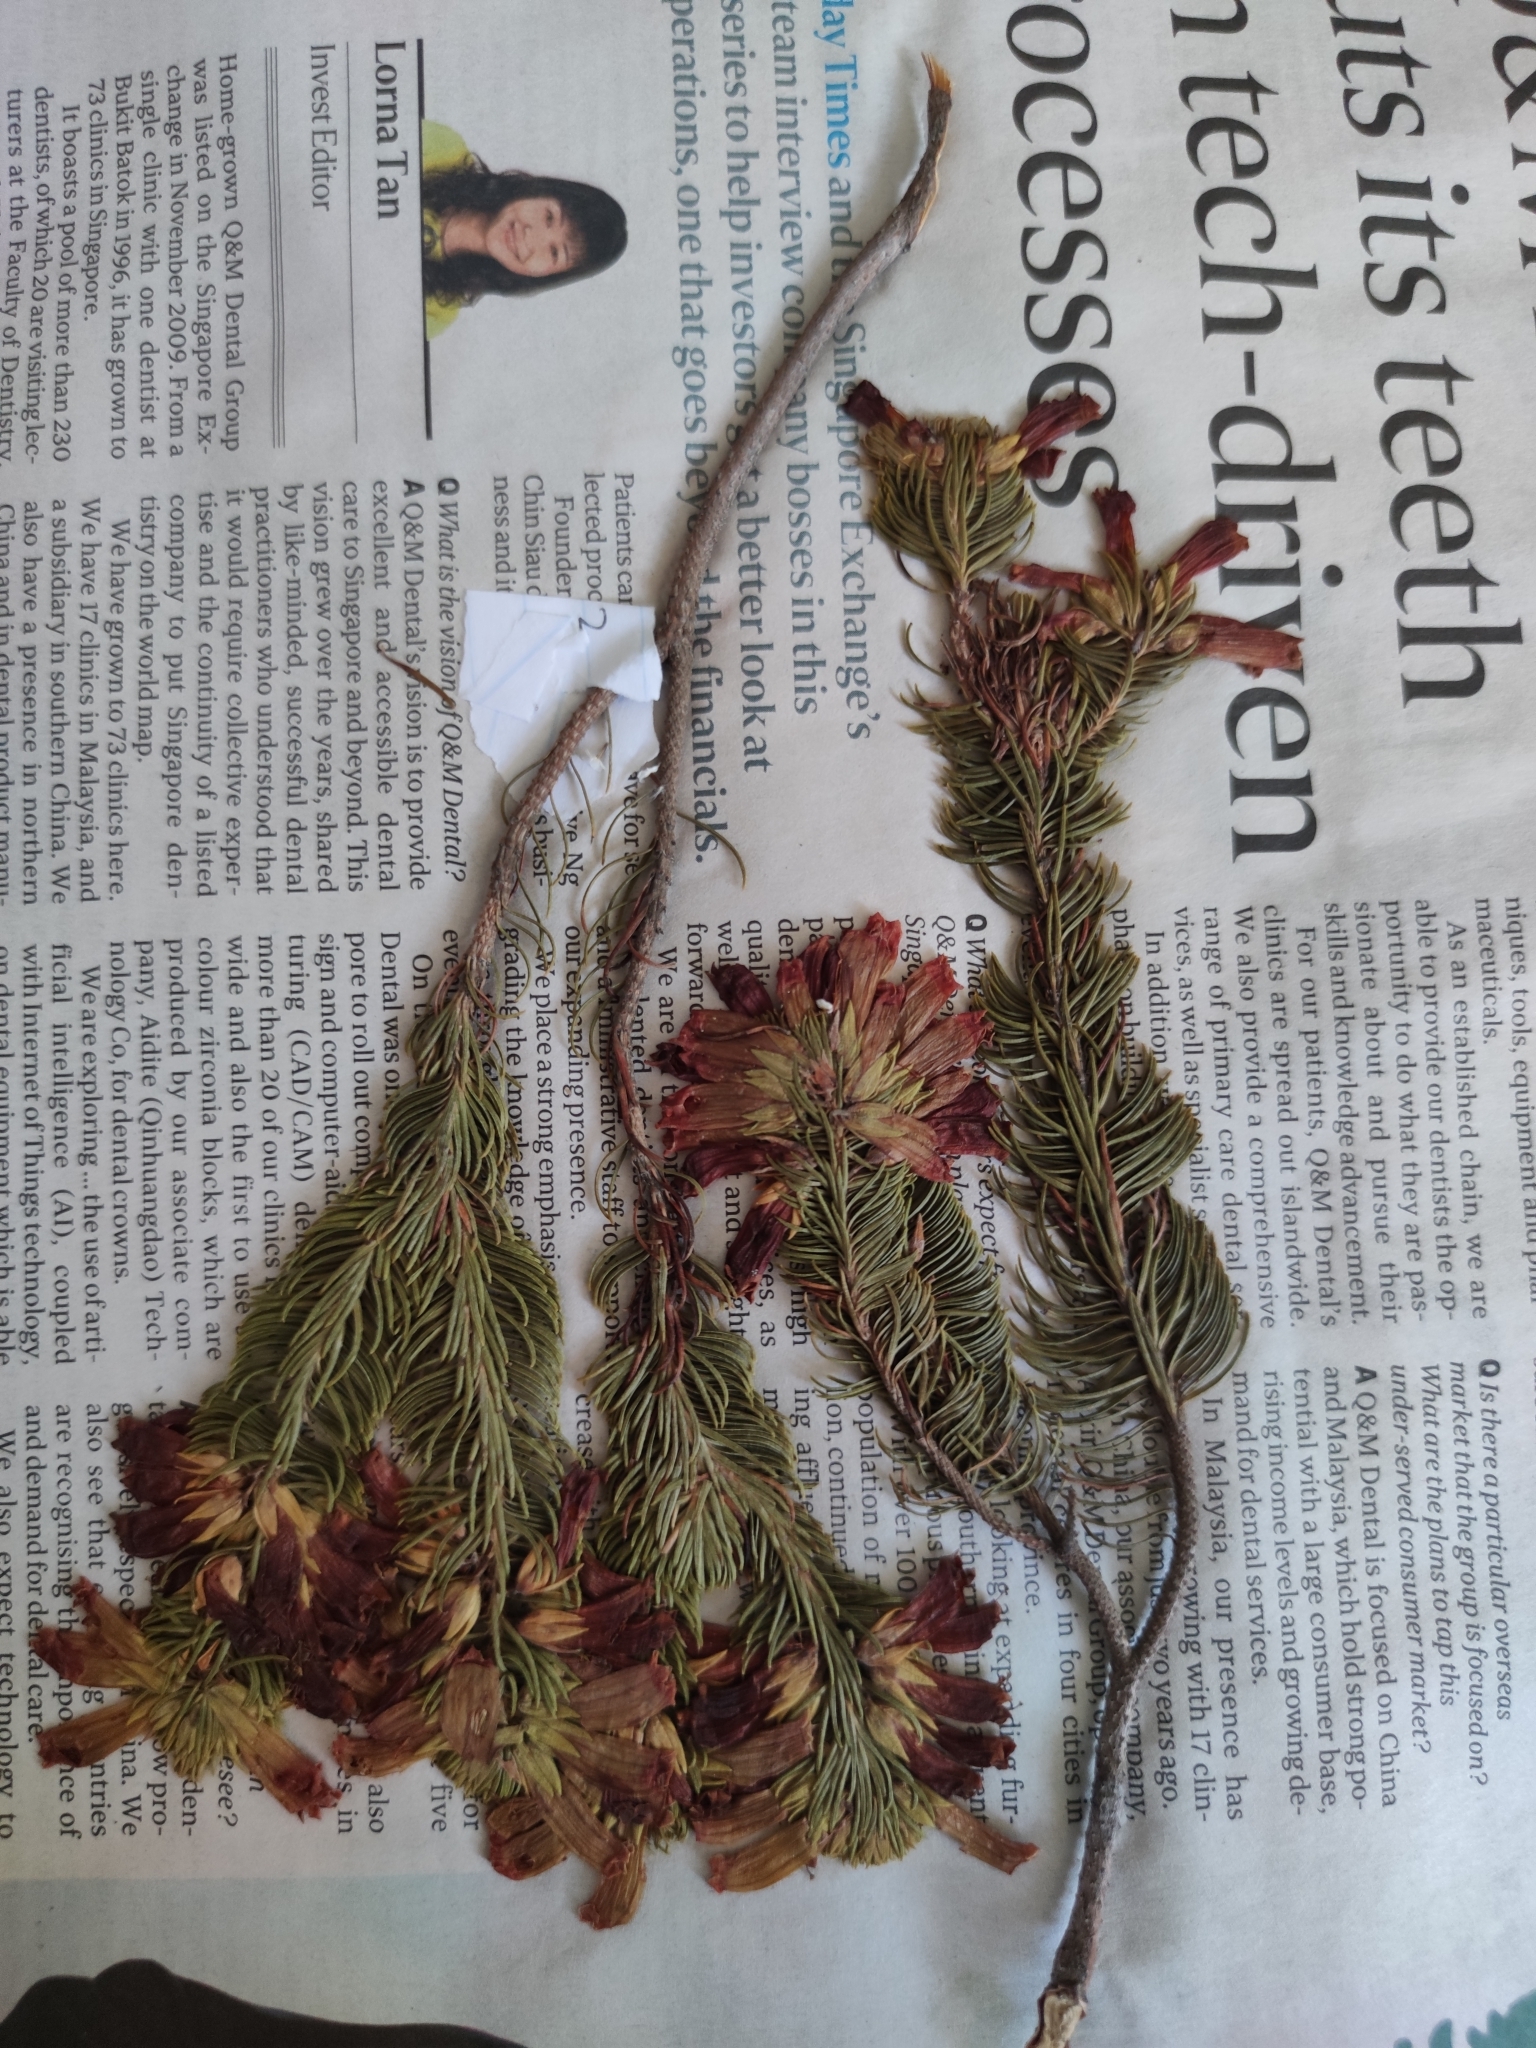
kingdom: Plantae
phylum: Tracheophyta
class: Magnoliopsida
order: Ericales
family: Ericaceae
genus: Erica
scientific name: Erica viscaria
